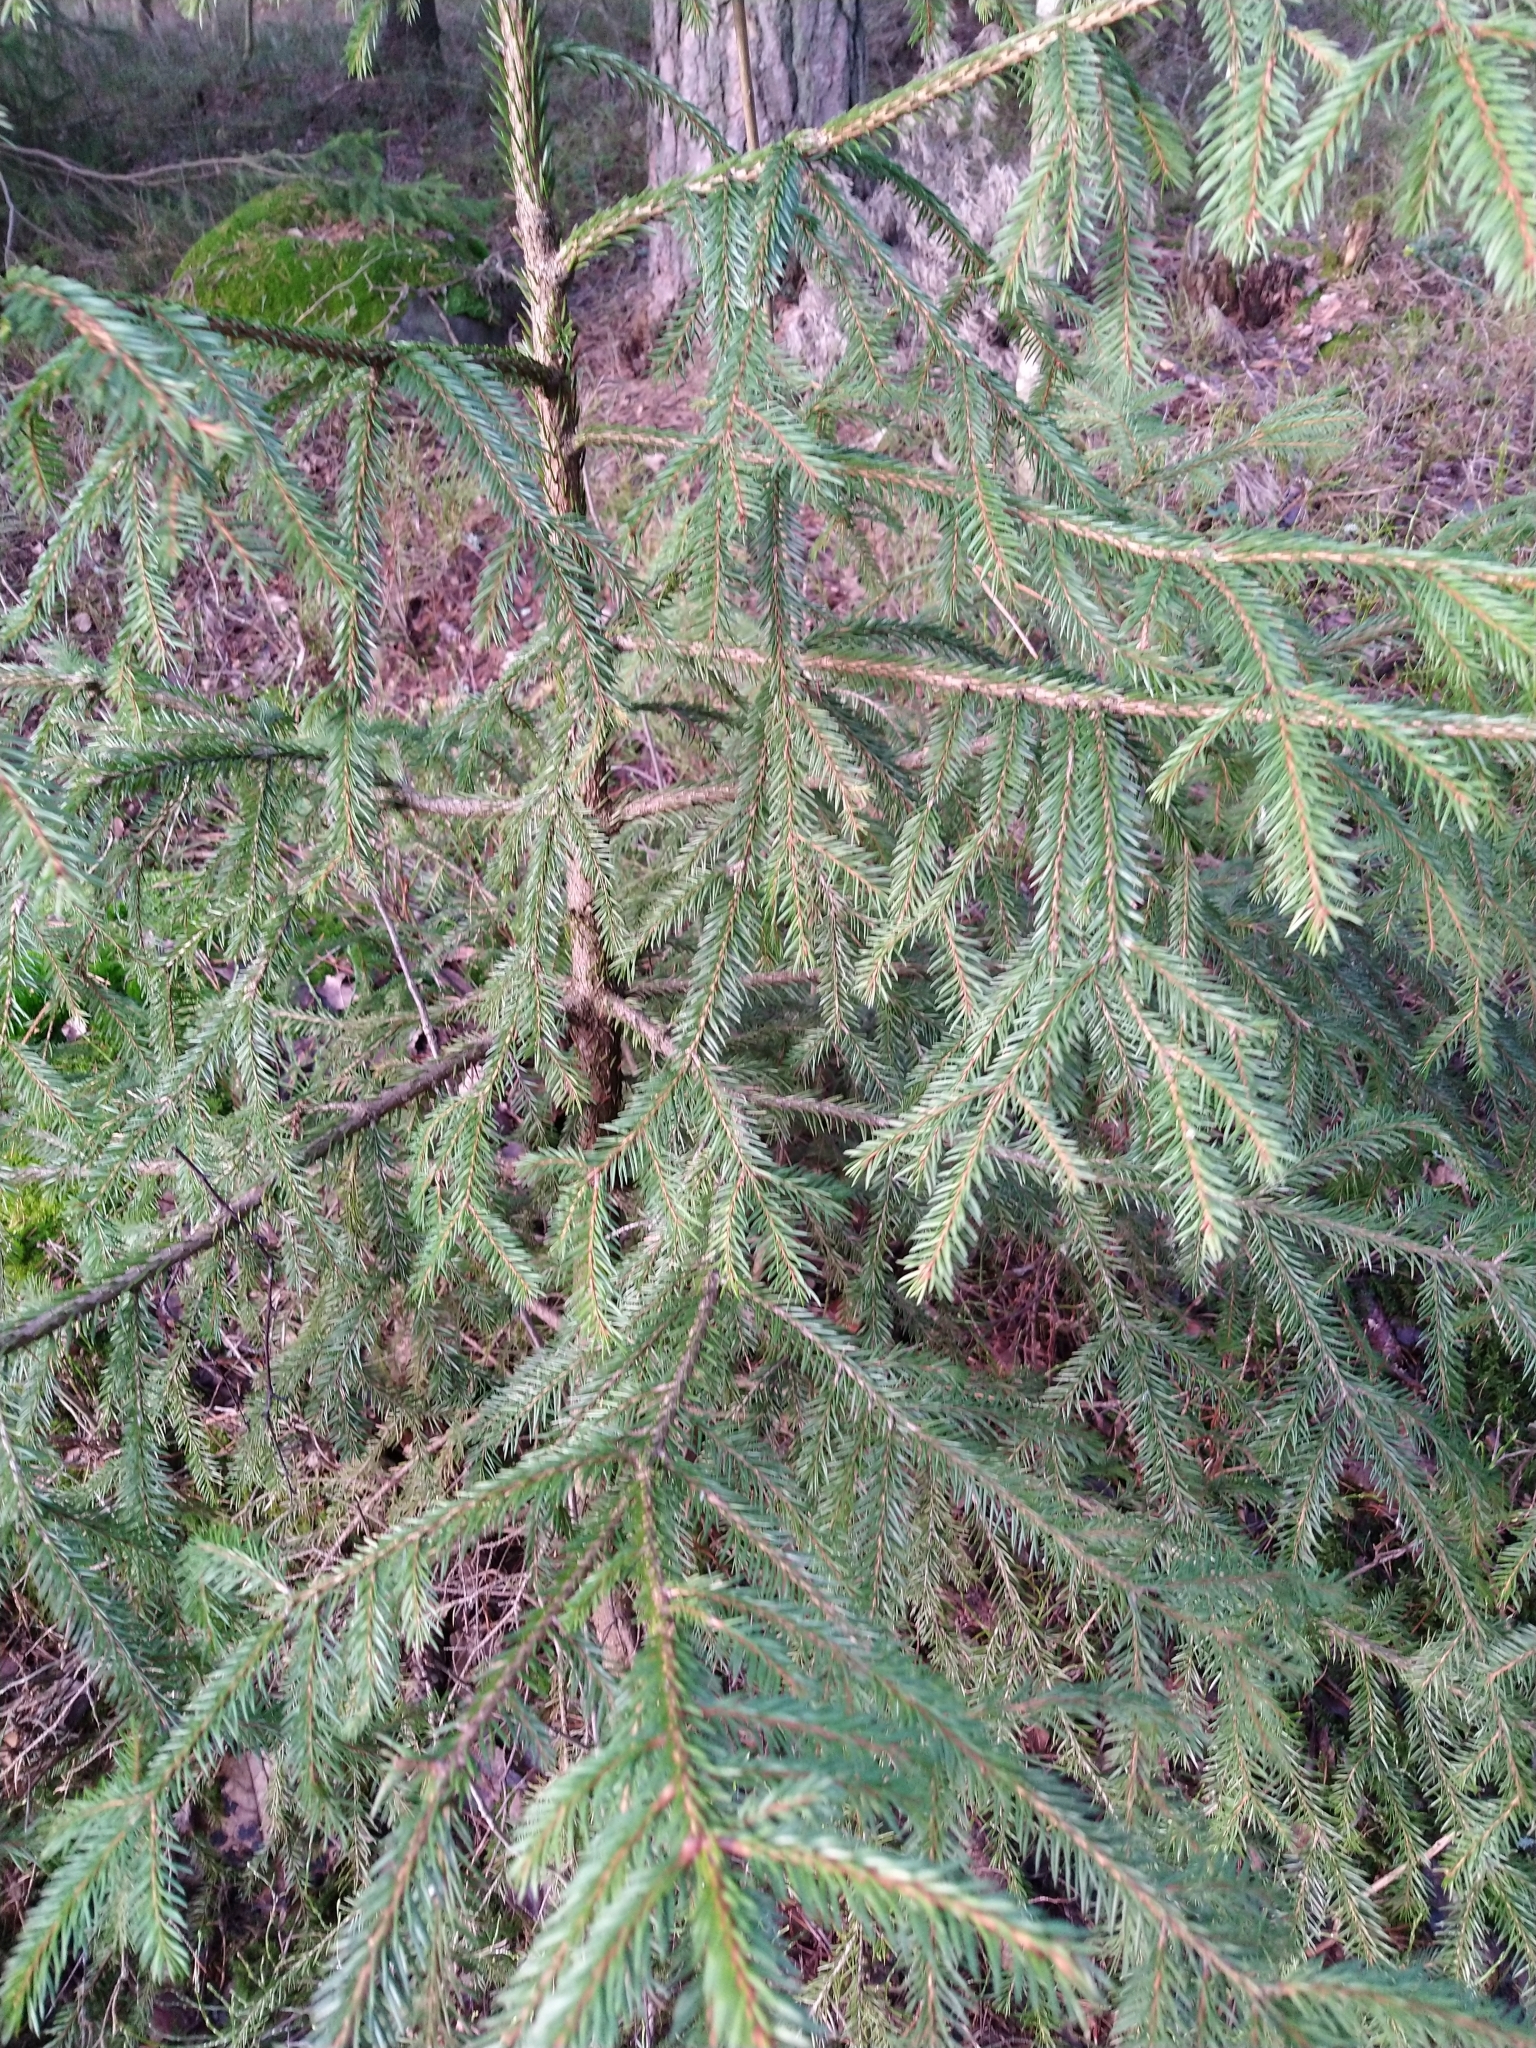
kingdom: Plantae
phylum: Tracheophyta
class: Pinopsida
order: Pinales
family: Pinaceae
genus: Picea
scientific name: Picea abies
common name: Norway spruce
